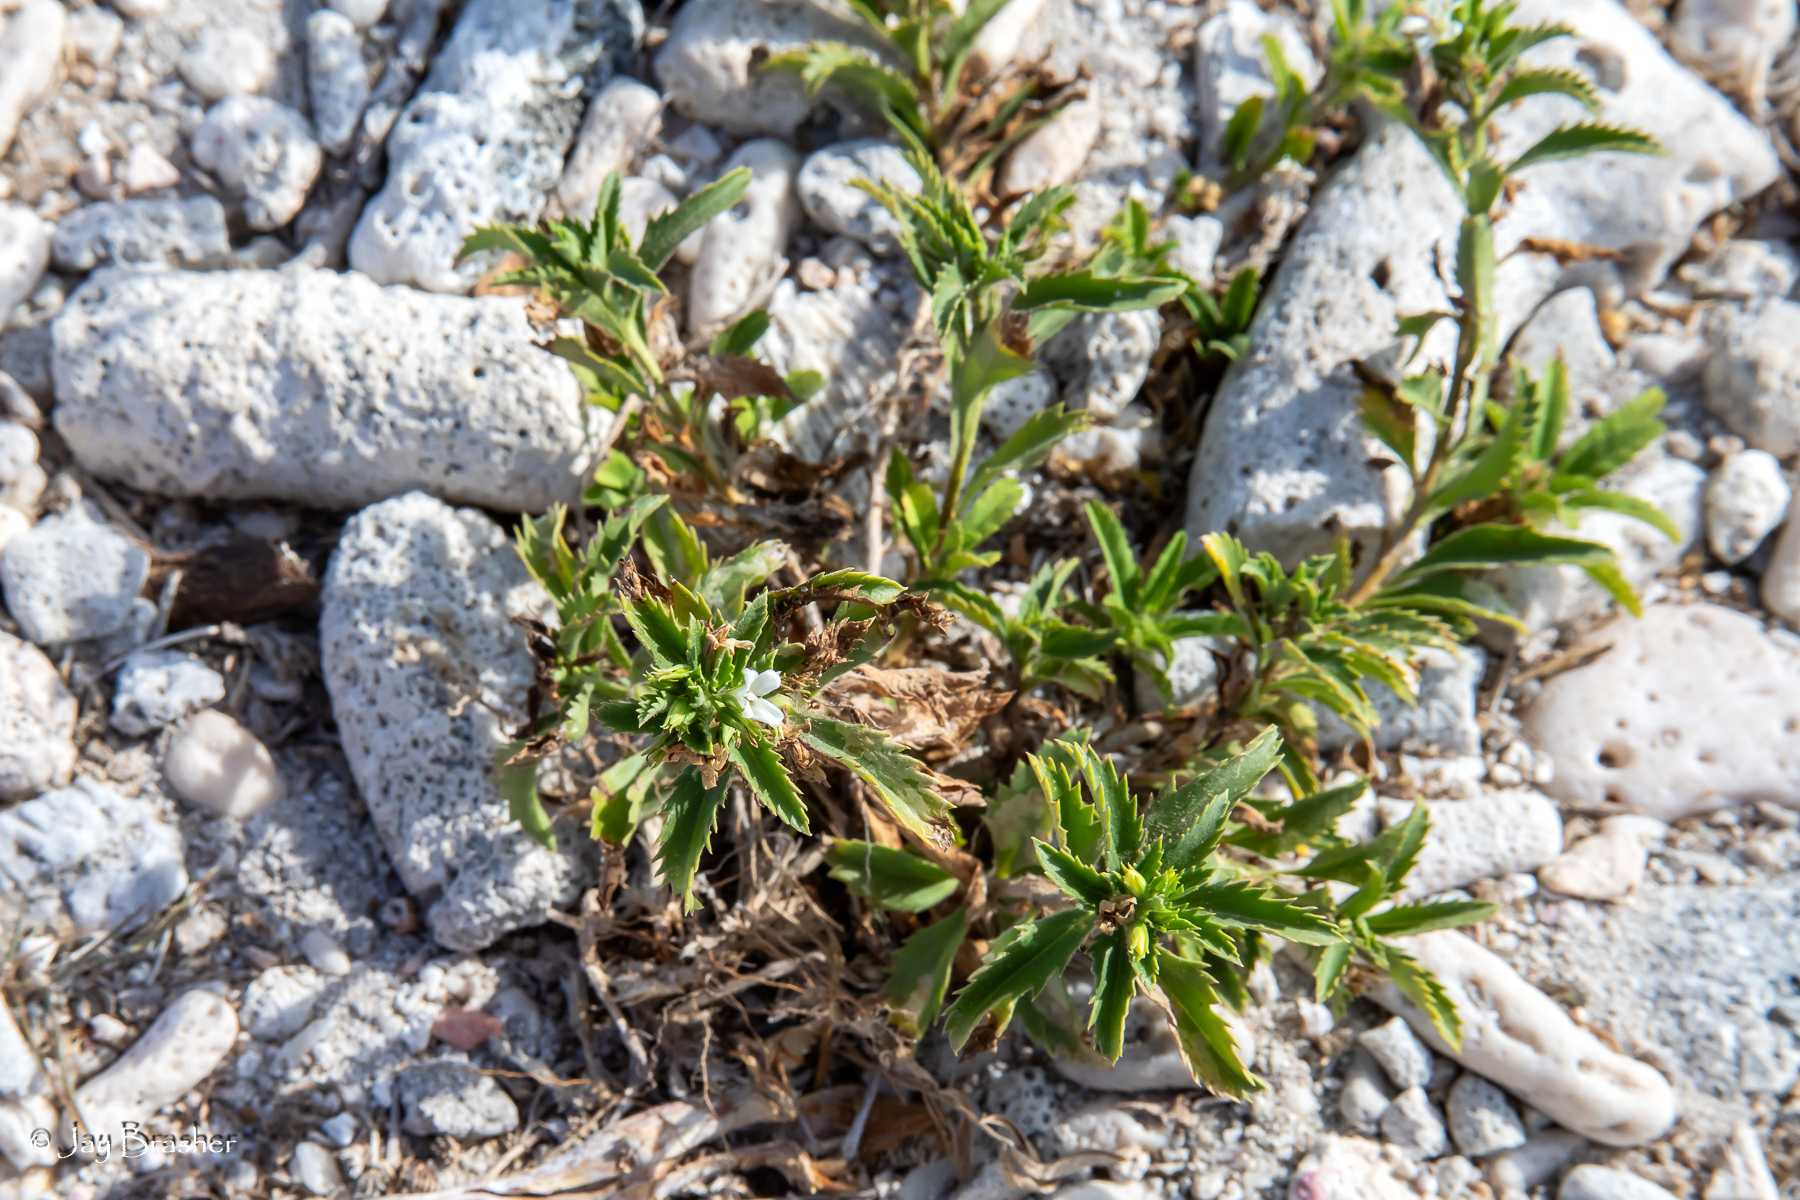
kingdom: Plantae
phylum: Tracheophyta
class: Magnoliopsida
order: Lamiales
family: Scrophulariaceae
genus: Capraria
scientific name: Capraria biflora
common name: Goatweed
